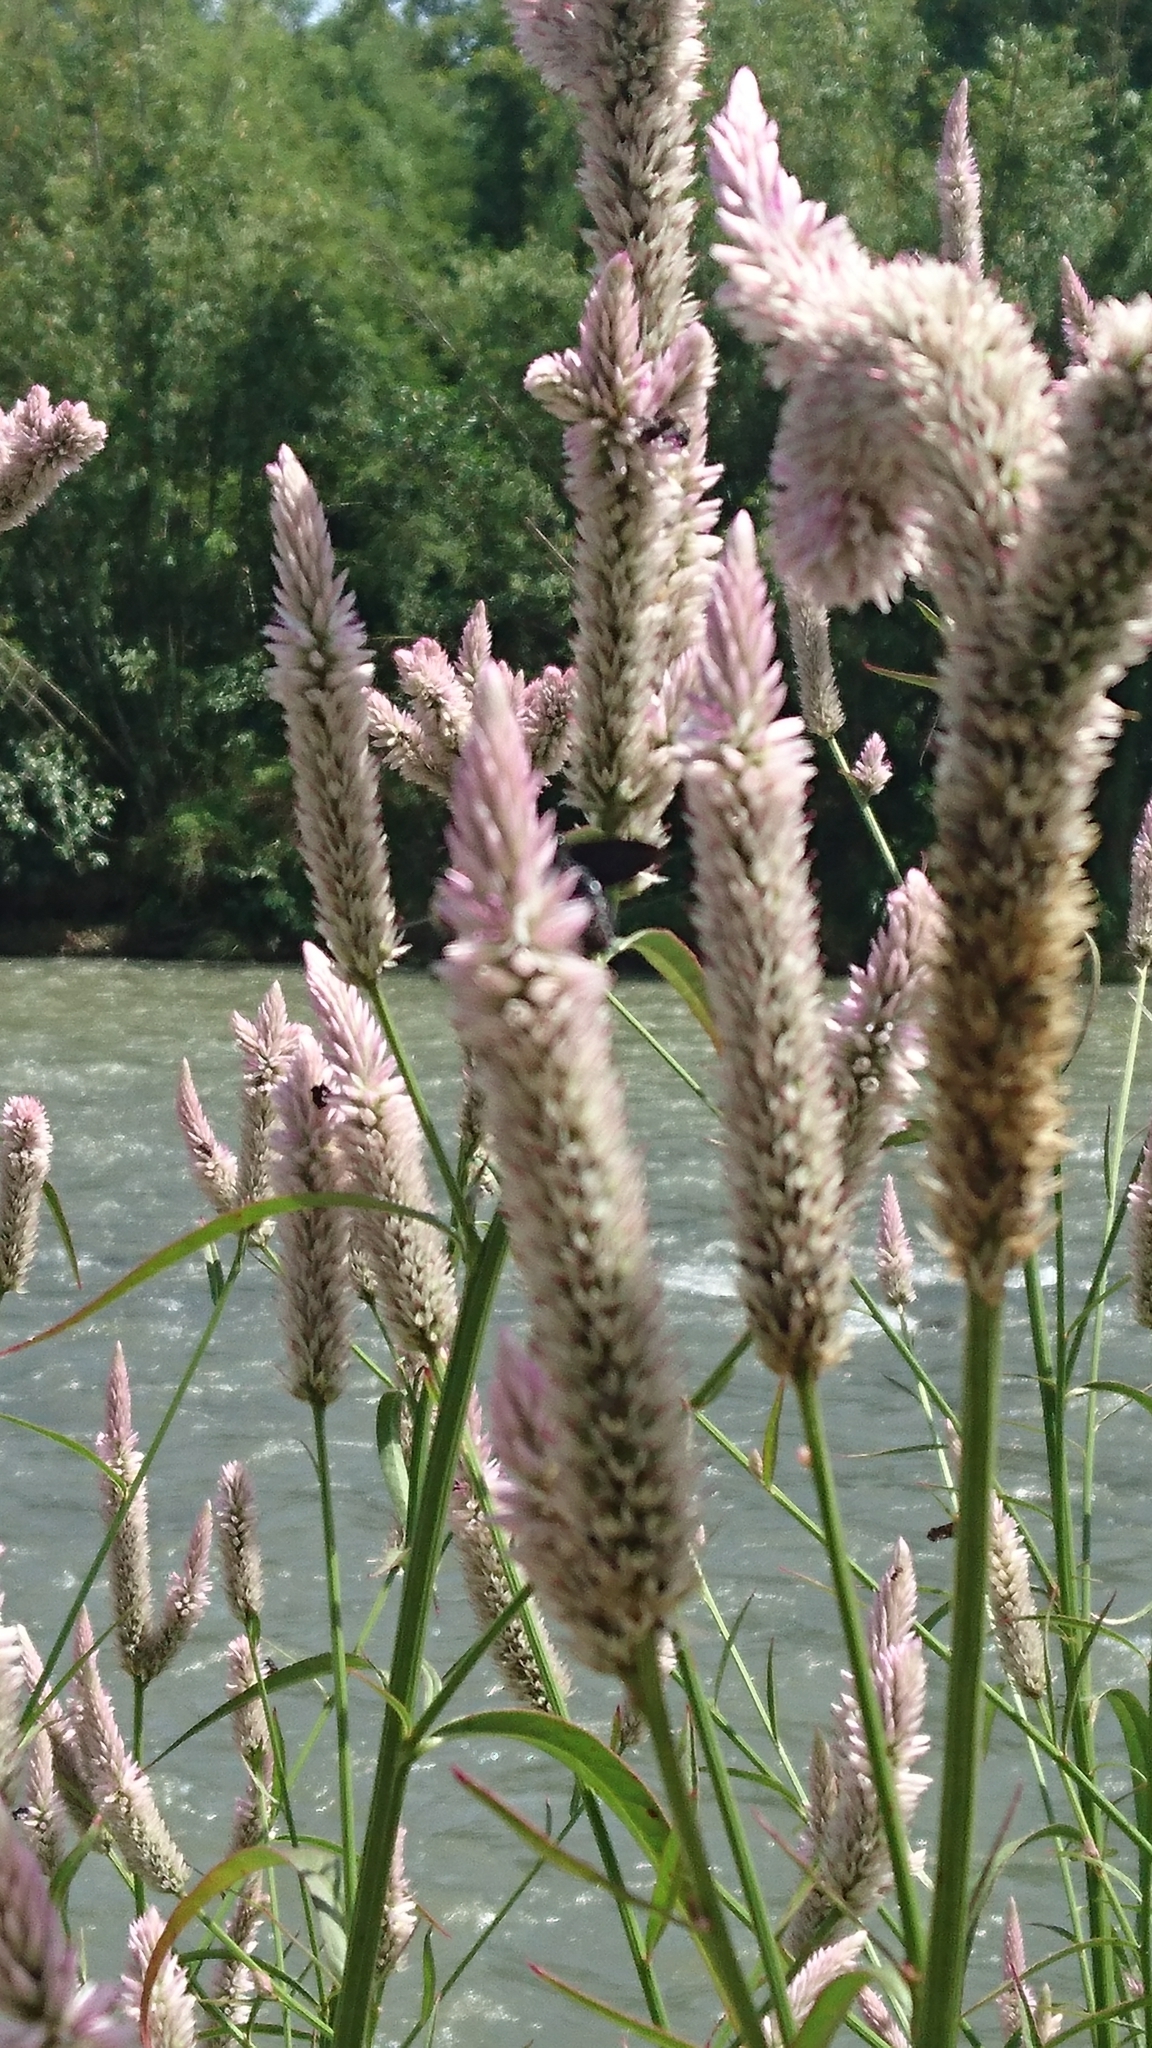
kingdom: Plantae
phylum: Tracheophyta
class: Magnoliopsida
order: Caryophyllales
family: Amaranthaceae
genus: Celosia
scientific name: Celosia argentea
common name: Feather cockscomb
